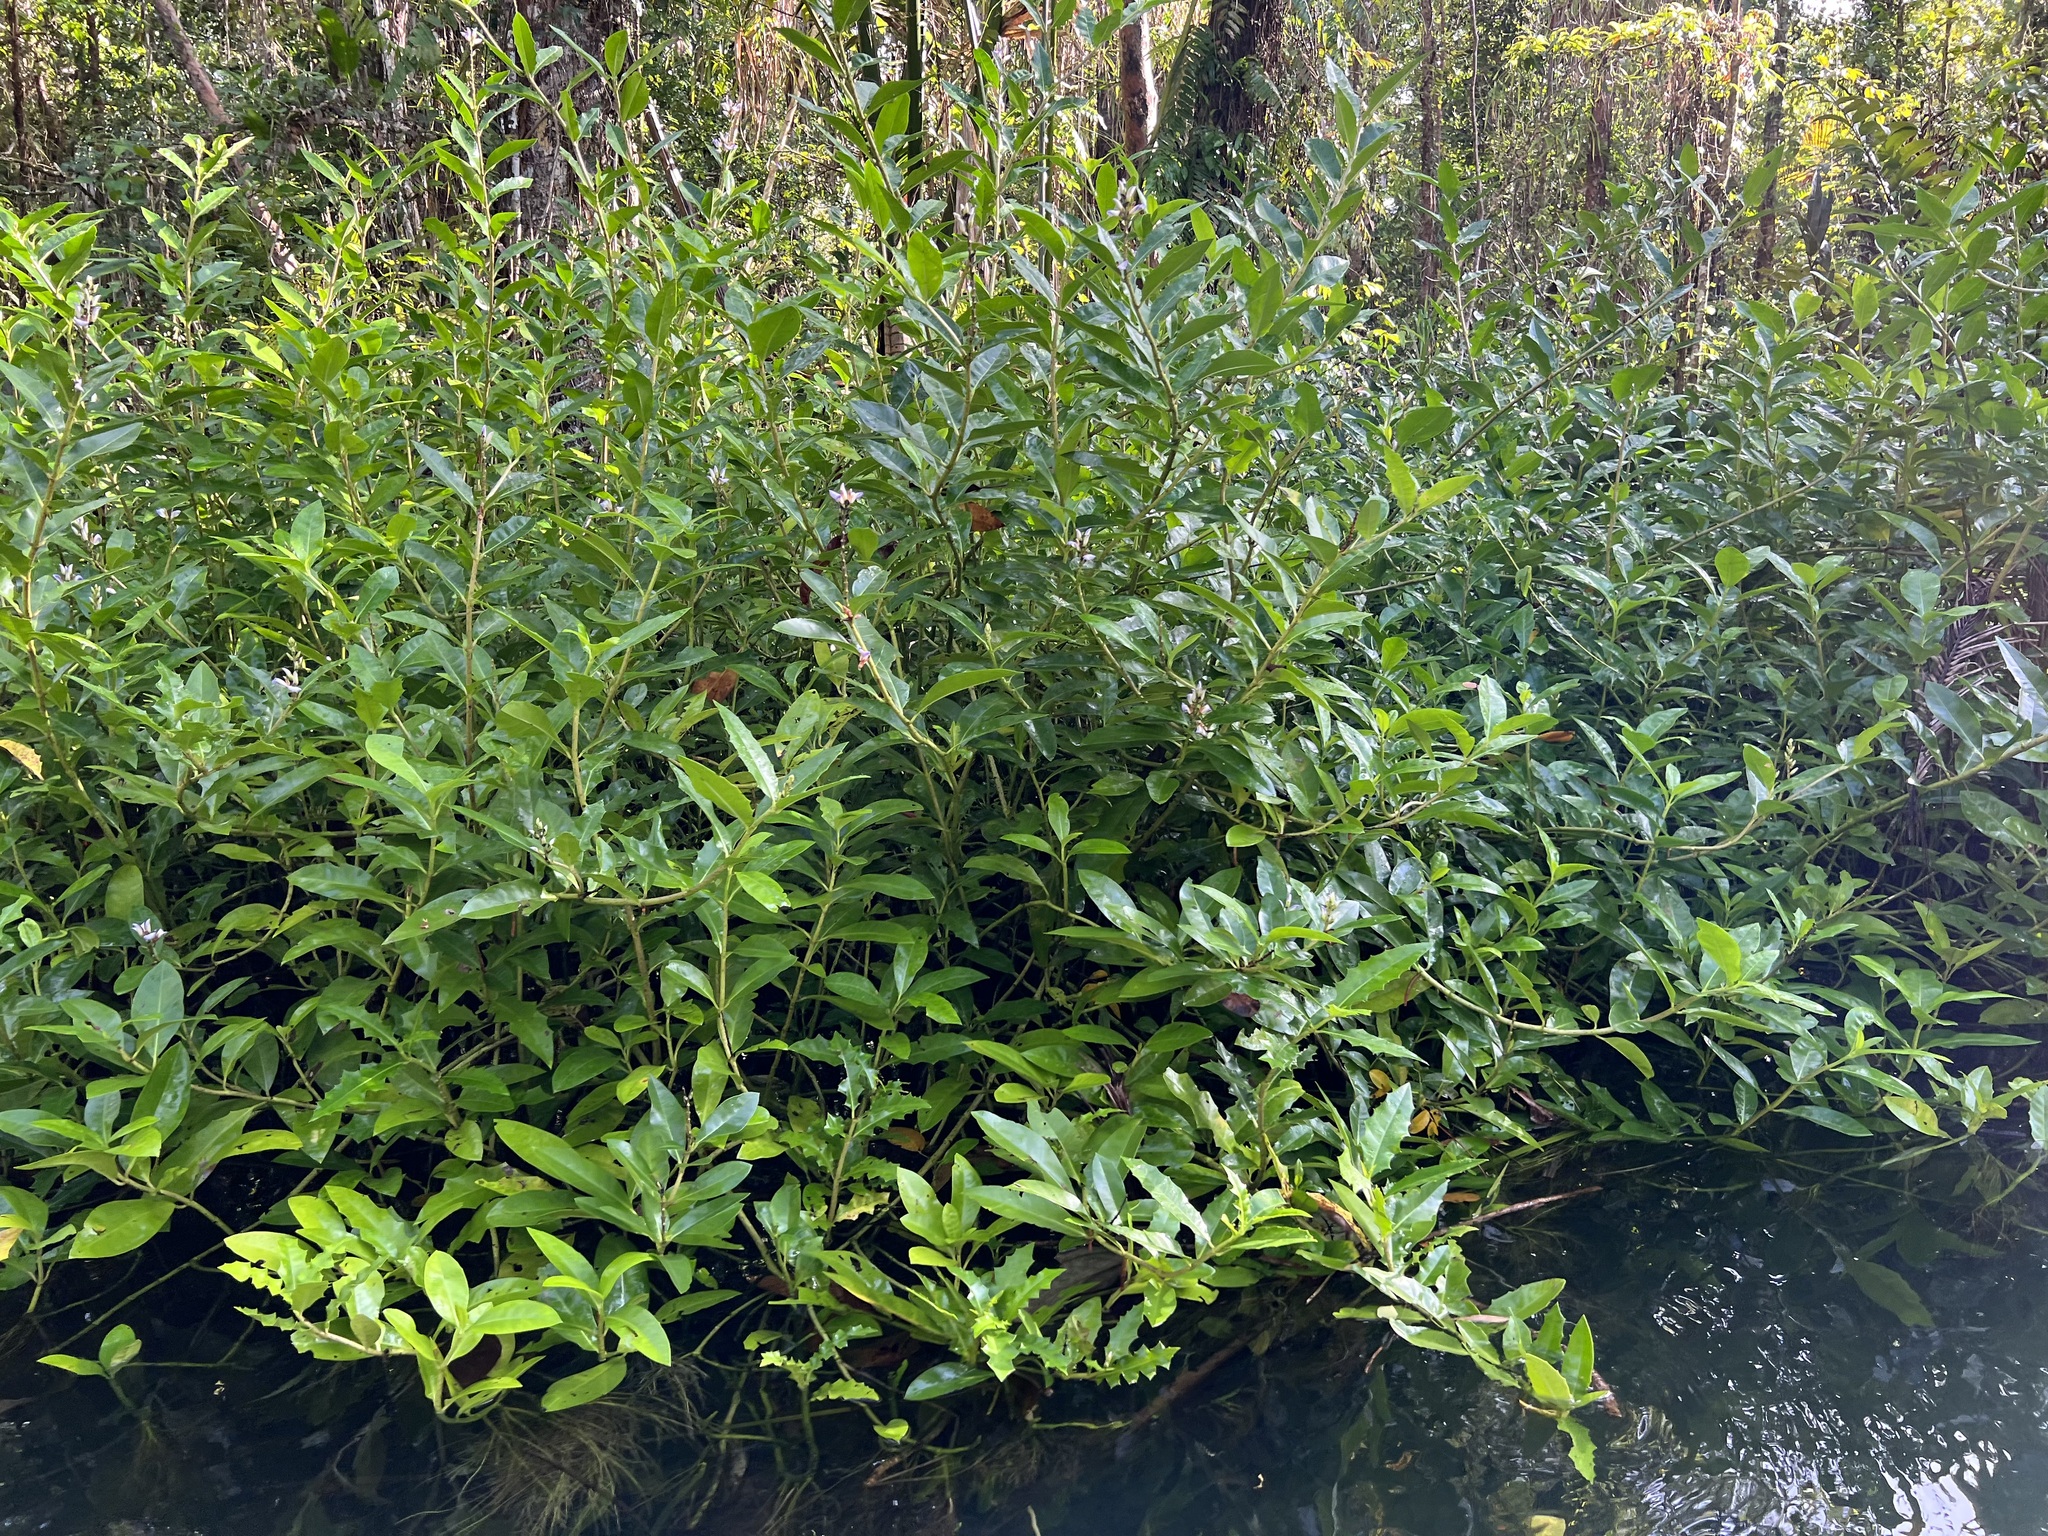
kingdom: Plantae
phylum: Tracheophyta
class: Magnoliopsida
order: Lamiales
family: Acanthaceae
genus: Acanthus
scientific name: Acanthus ilicifolius
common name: Holy mangrove
